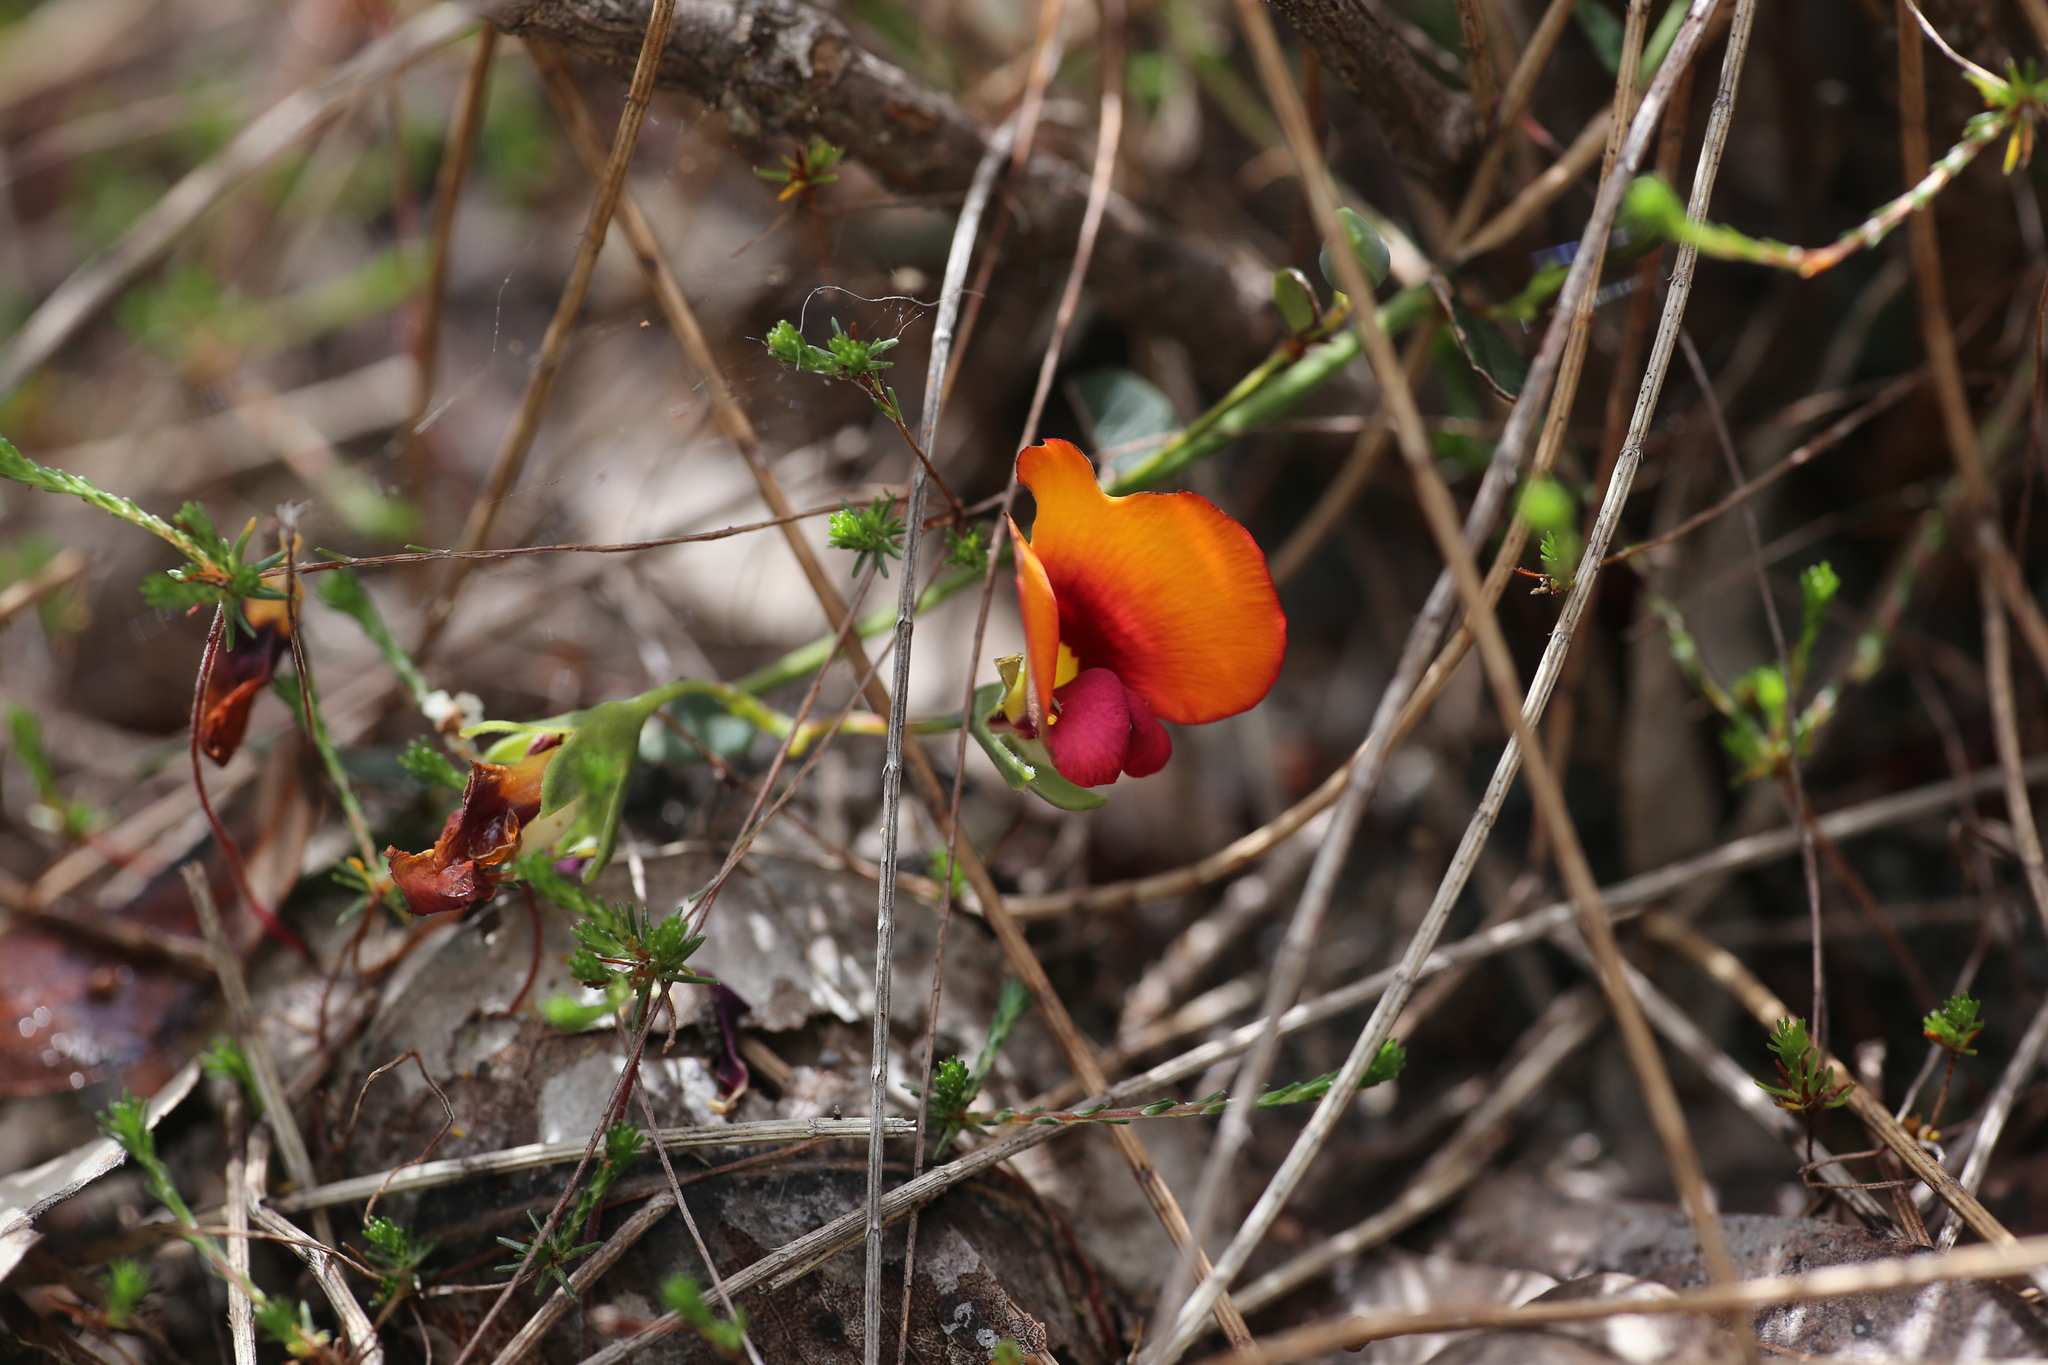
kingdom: Plantae
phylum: Tracheophyta
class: Magnoliopsida
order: Fabales
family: Fabaceae
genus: Gompholobium
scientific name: Gompholobium ovatum
